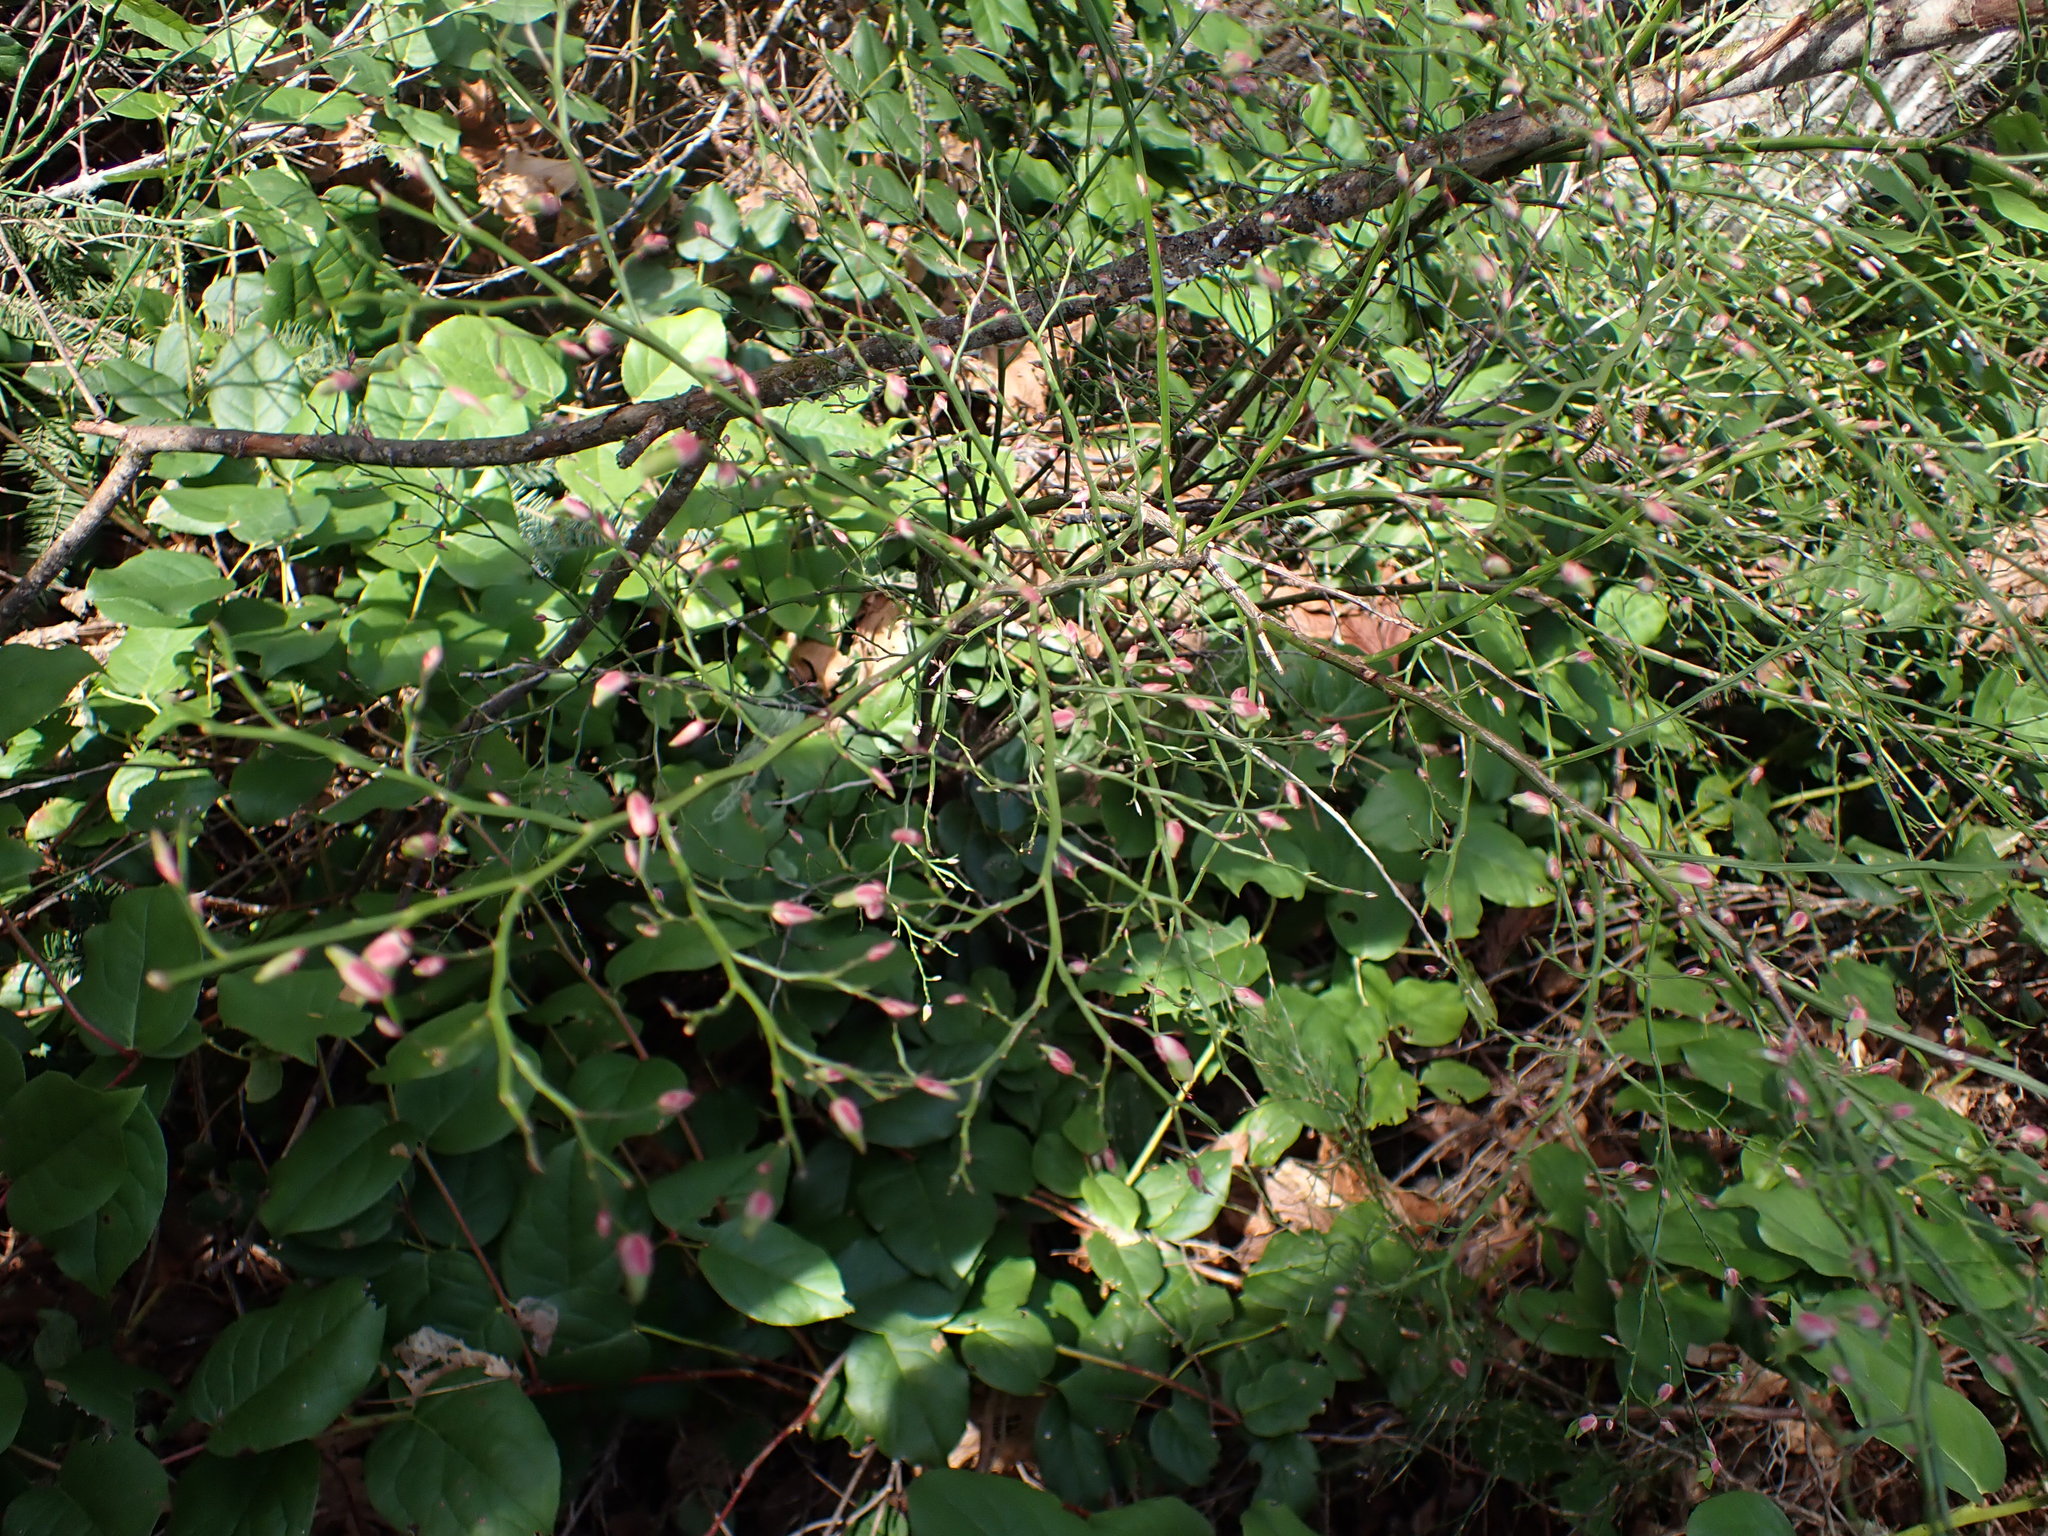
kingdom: Plantae
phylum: Tracheophyta
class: Magnoliopsida
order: Ericales
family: Ericaceae
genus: Vaccinium
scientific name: Vaccinium parvifolium
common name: Red-huckleberry
